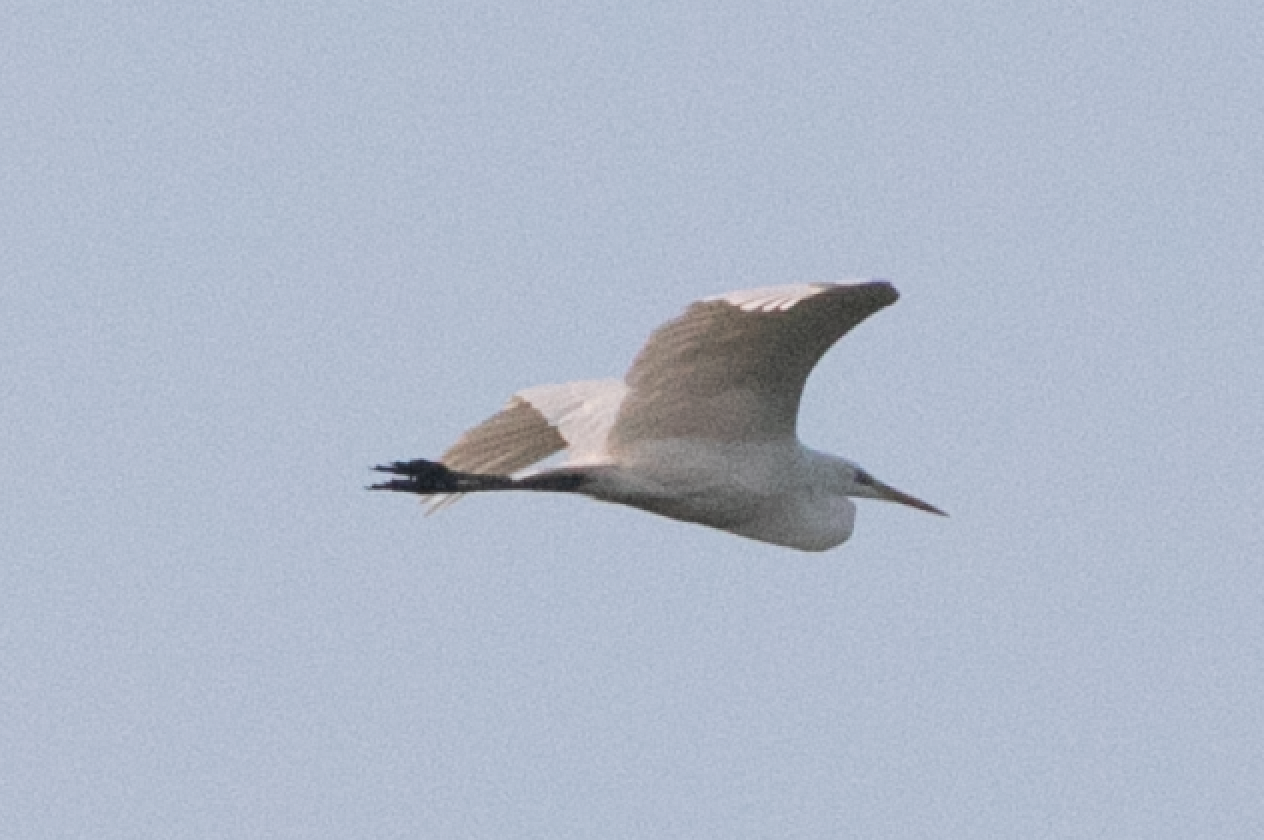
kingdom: Animalia
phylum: Chordata
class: Aves
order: Pelecaniformes
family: Ardeidae
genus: Ardea
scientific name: Ardea alba
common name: Great egret
